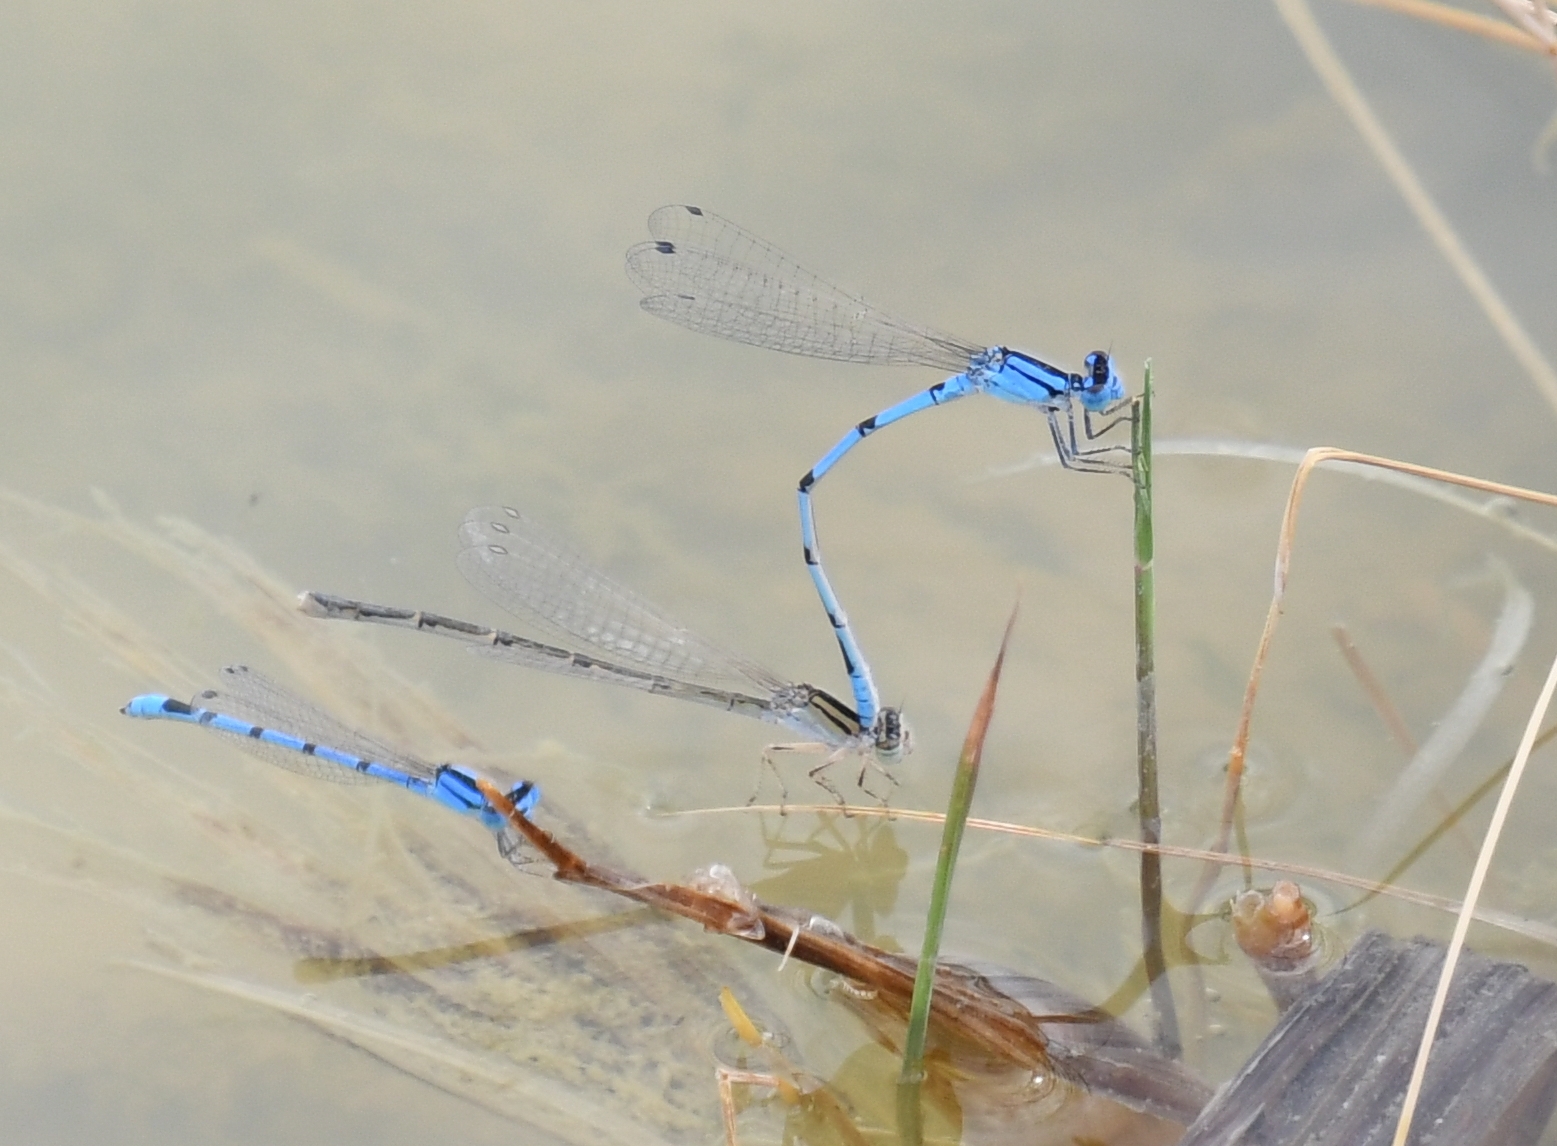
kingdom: Animalia
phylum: Arthropoda
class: Insecta
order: Odonata
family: Coenagrionidae
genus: Enallagma
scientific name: Enallagma civile
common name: Damselfly
